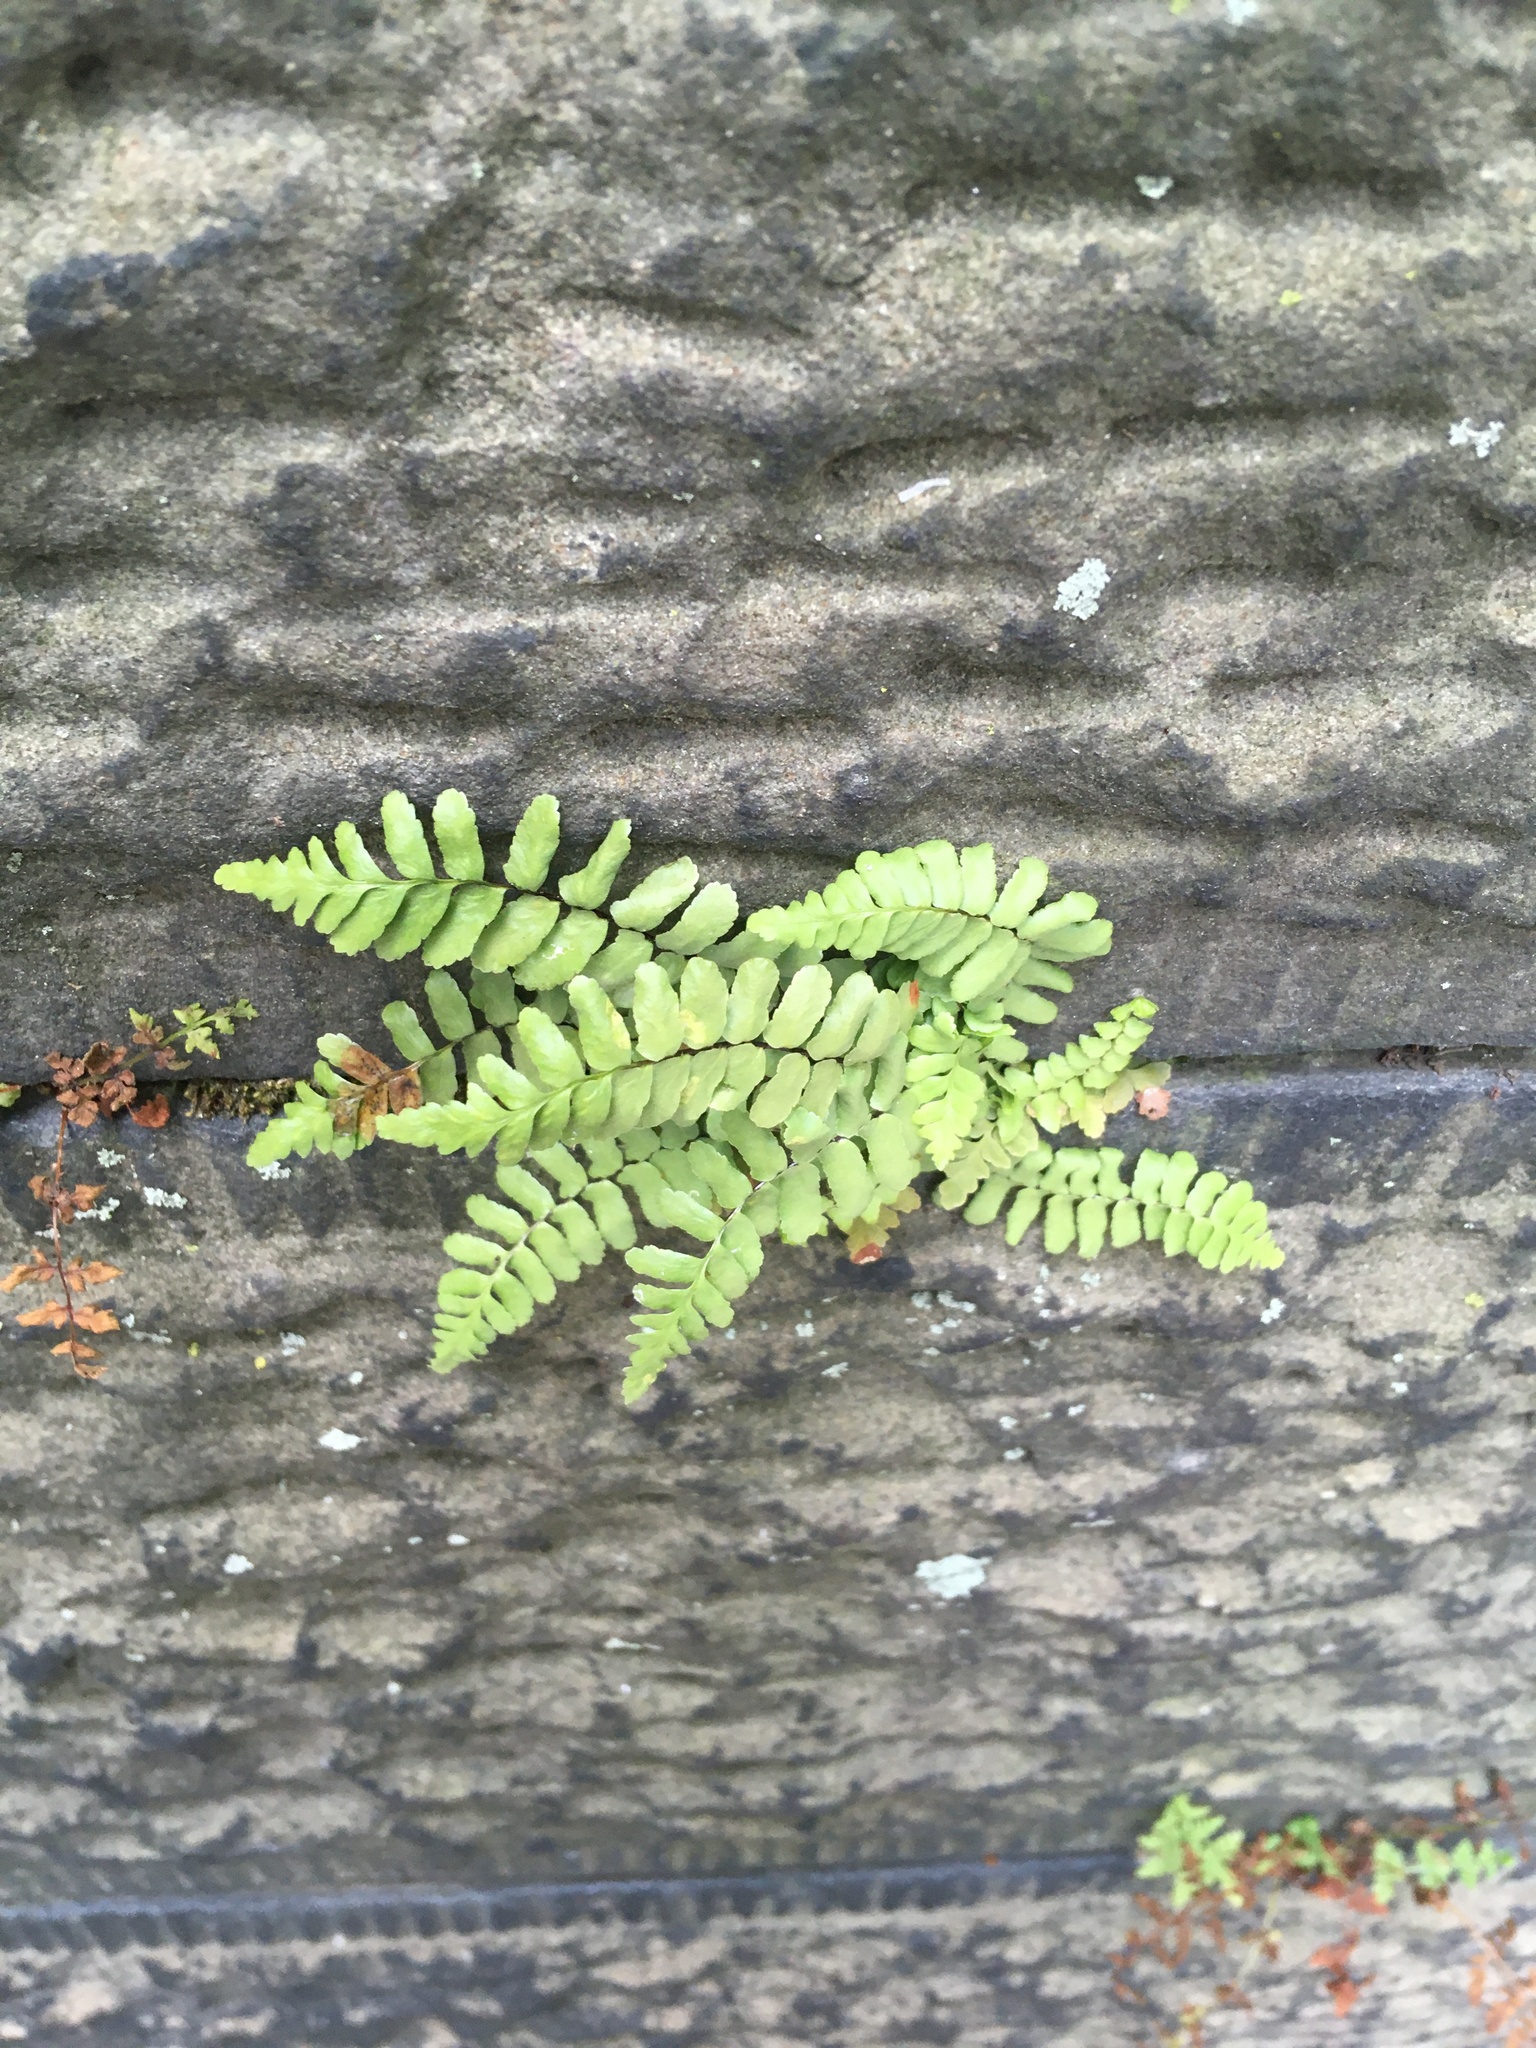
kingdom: Plantae
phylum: Tracheophyta
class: Polypodiopsida
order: Polypodiales
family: Aspleniaceae
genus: Asplenium
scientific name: Asplenium platyneuron
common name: Ebony spleenwort
